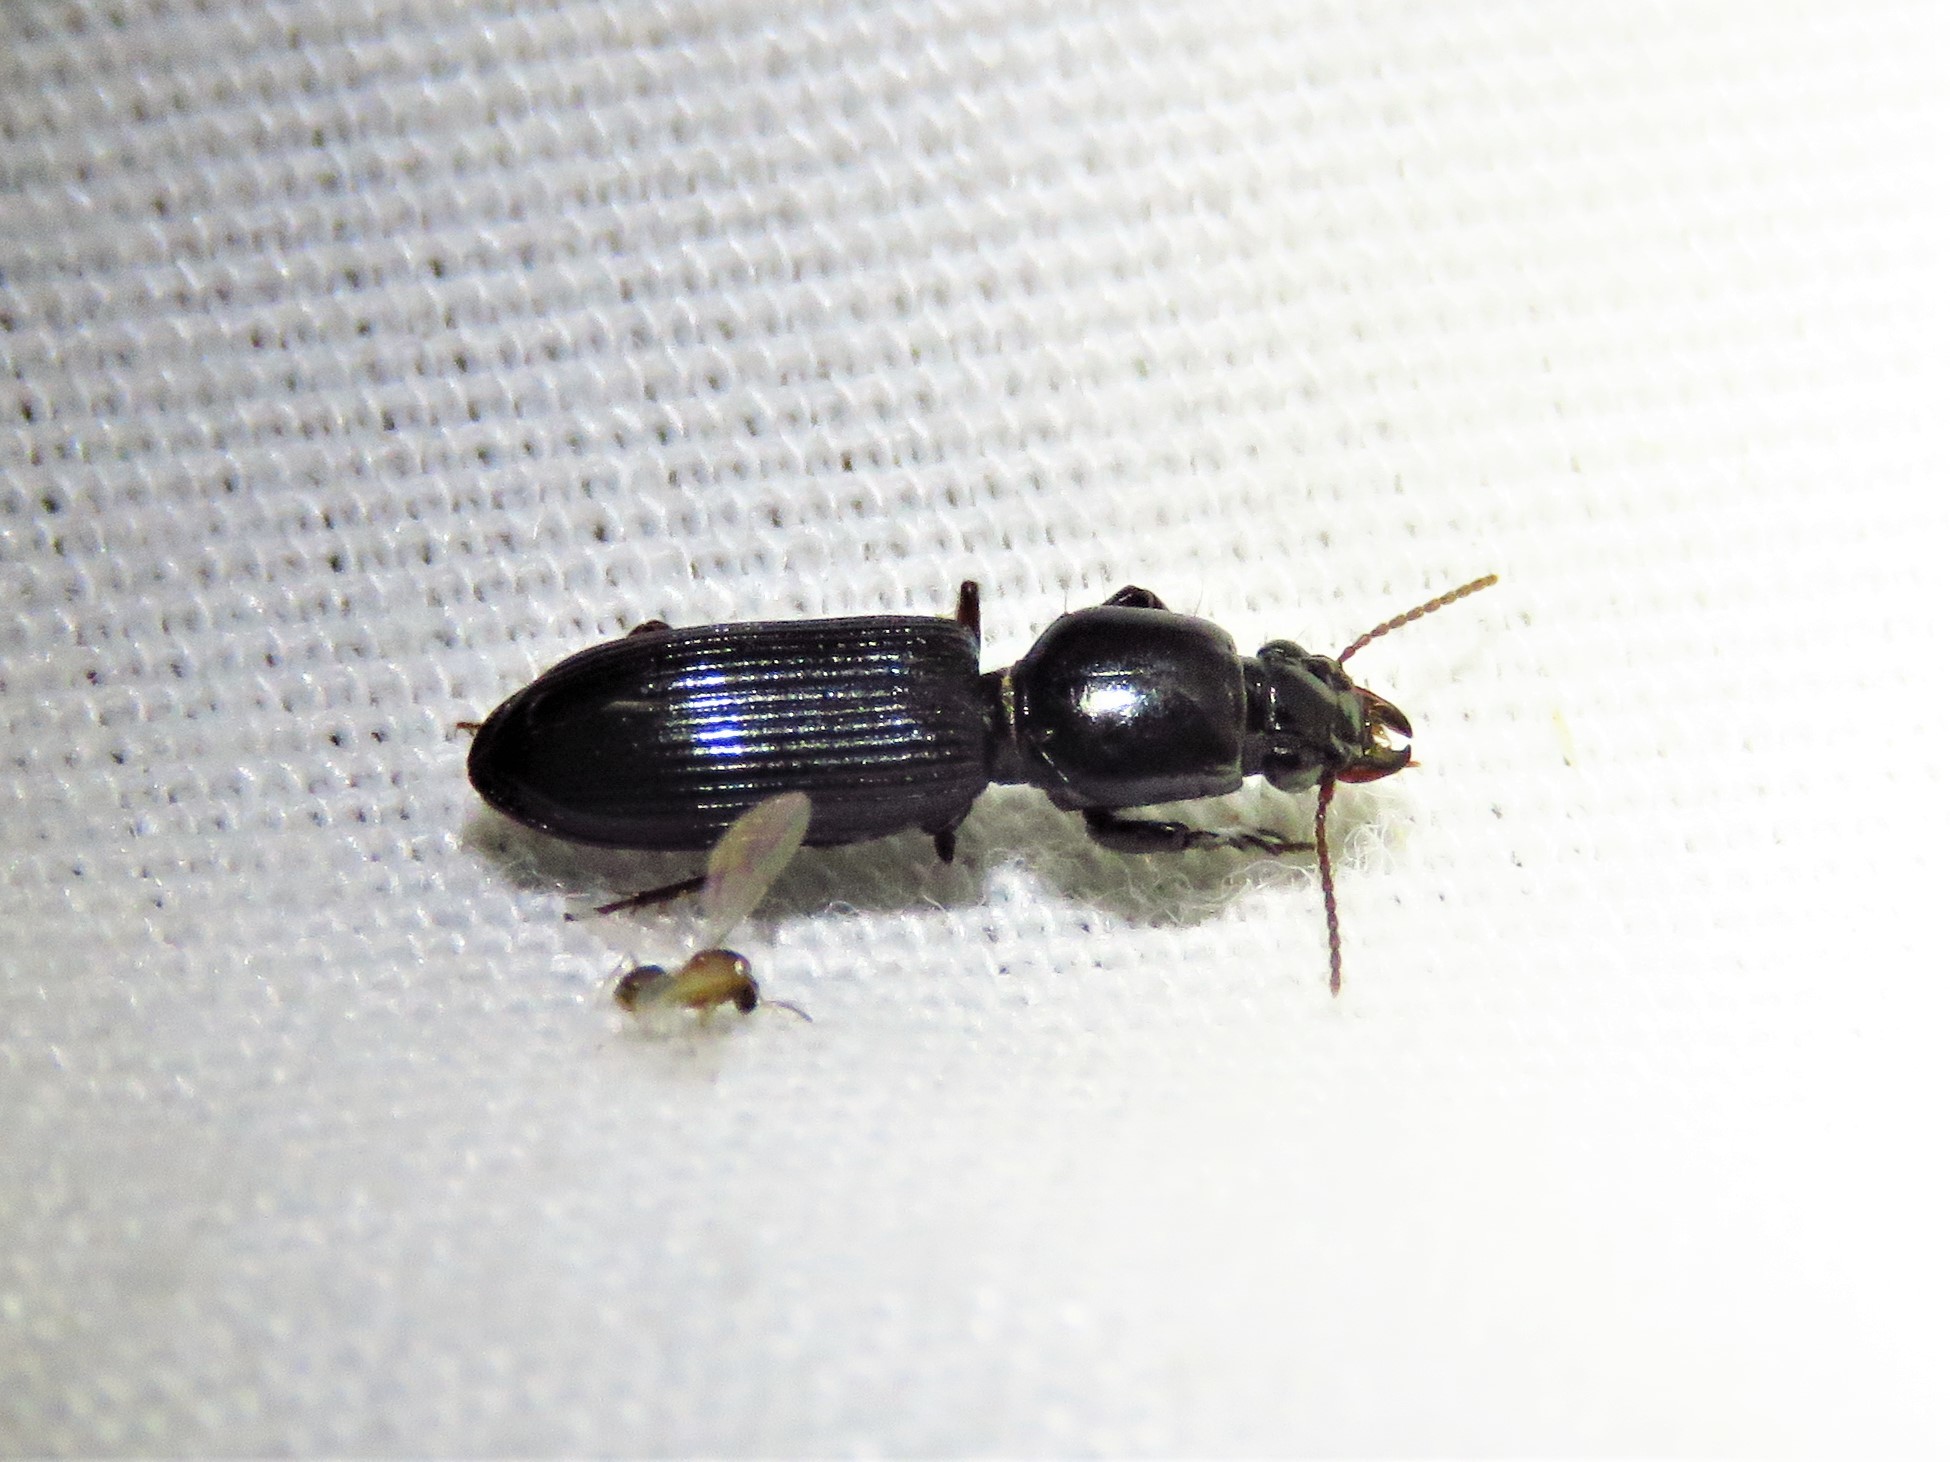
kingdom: Animalia
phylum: Arthropoda
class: Insecta
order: Coleoptera
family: Carabidae
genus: Semiclivina
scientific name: Semiclivina dentipes
